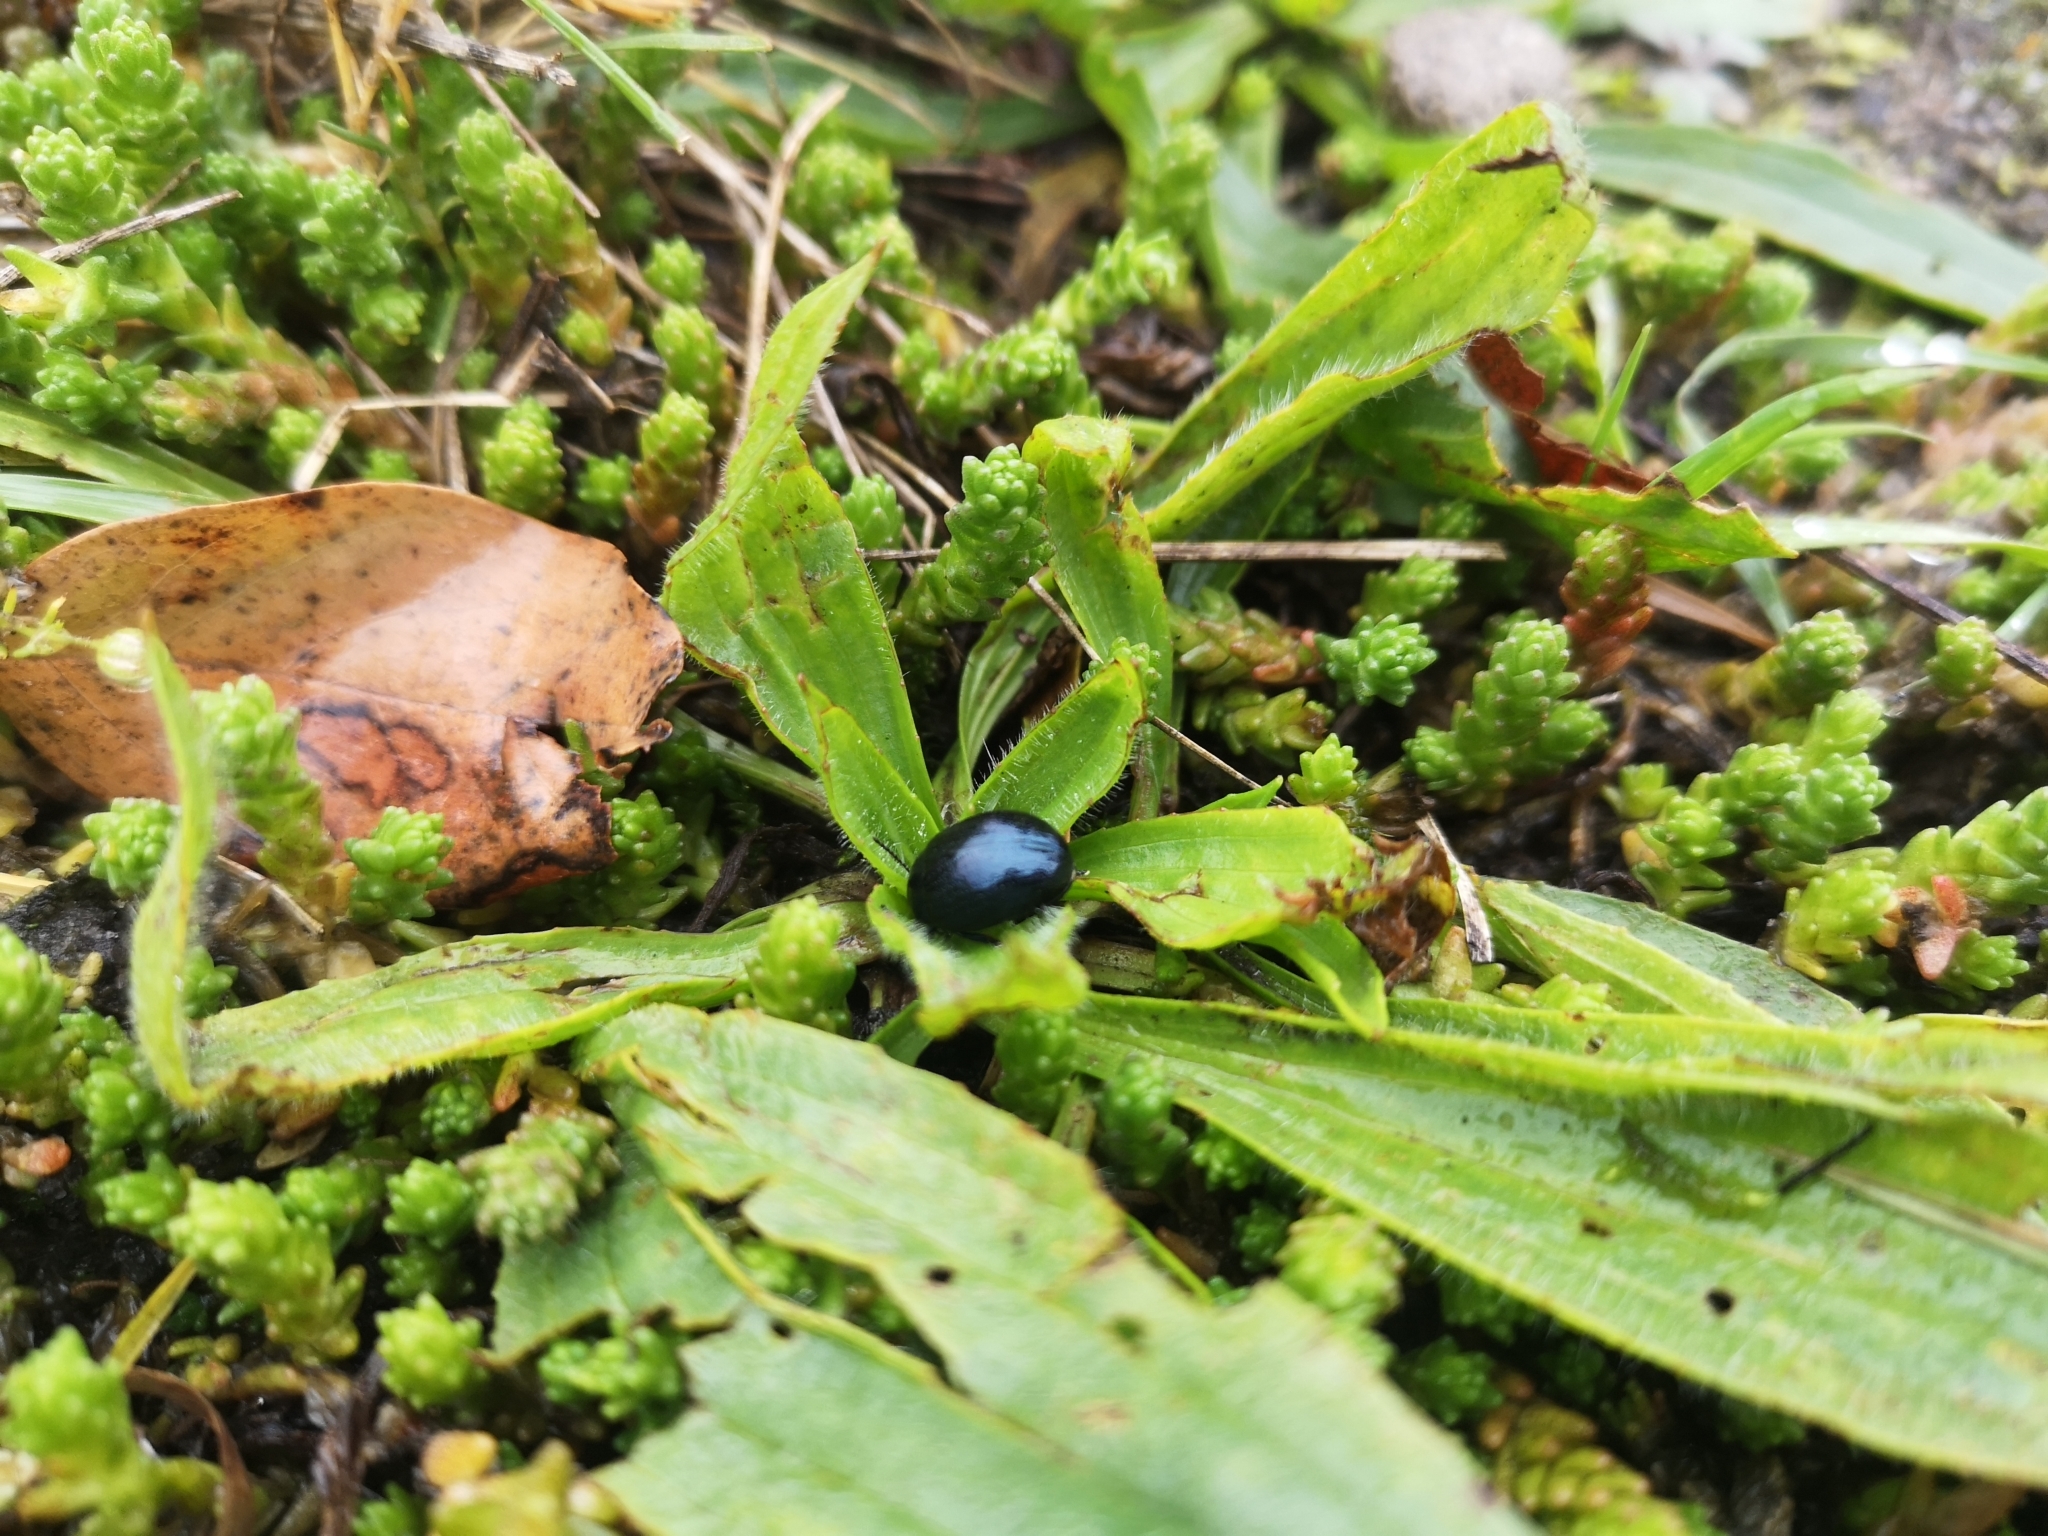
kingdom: Animalia
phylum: Arthropoda
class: Insecta
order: Coleoptera
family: Chrysomelidae
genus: Chrysolina
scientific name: Chrysolina haemoptera
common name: Plantain leaf beetle
